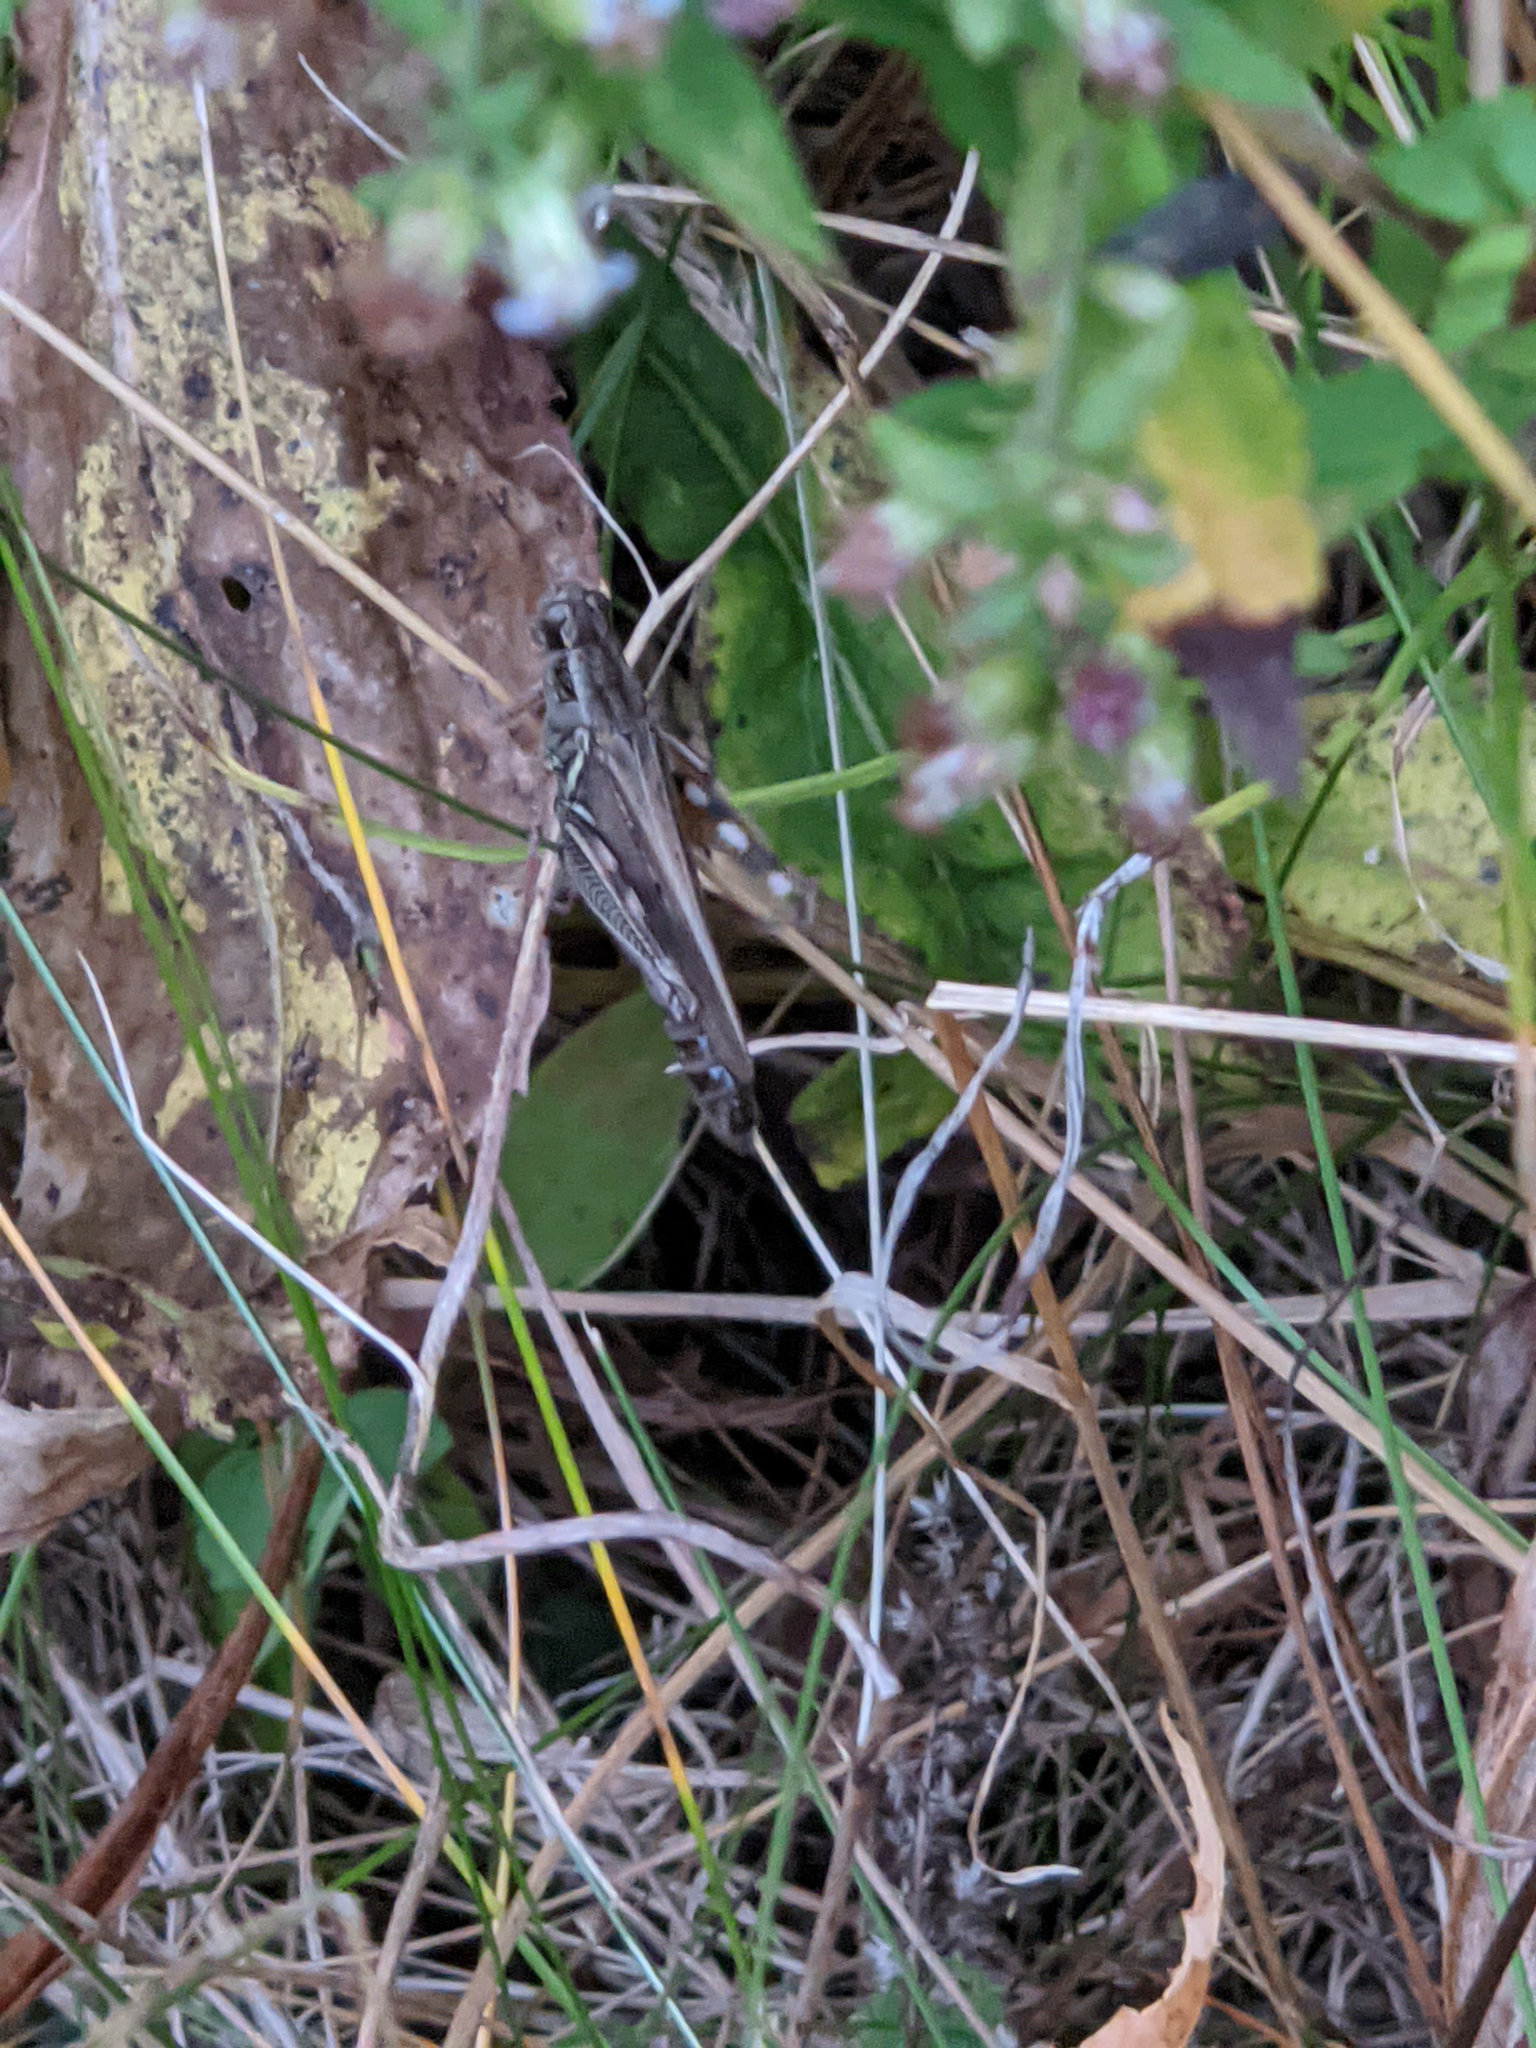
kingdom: Animalia
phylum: Arthropoda
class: Insecta
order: Orthoptera
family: Acrididae
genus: Melanoplus
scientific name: Melanoplus femurrubrum
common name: Red-legged grasshopper
